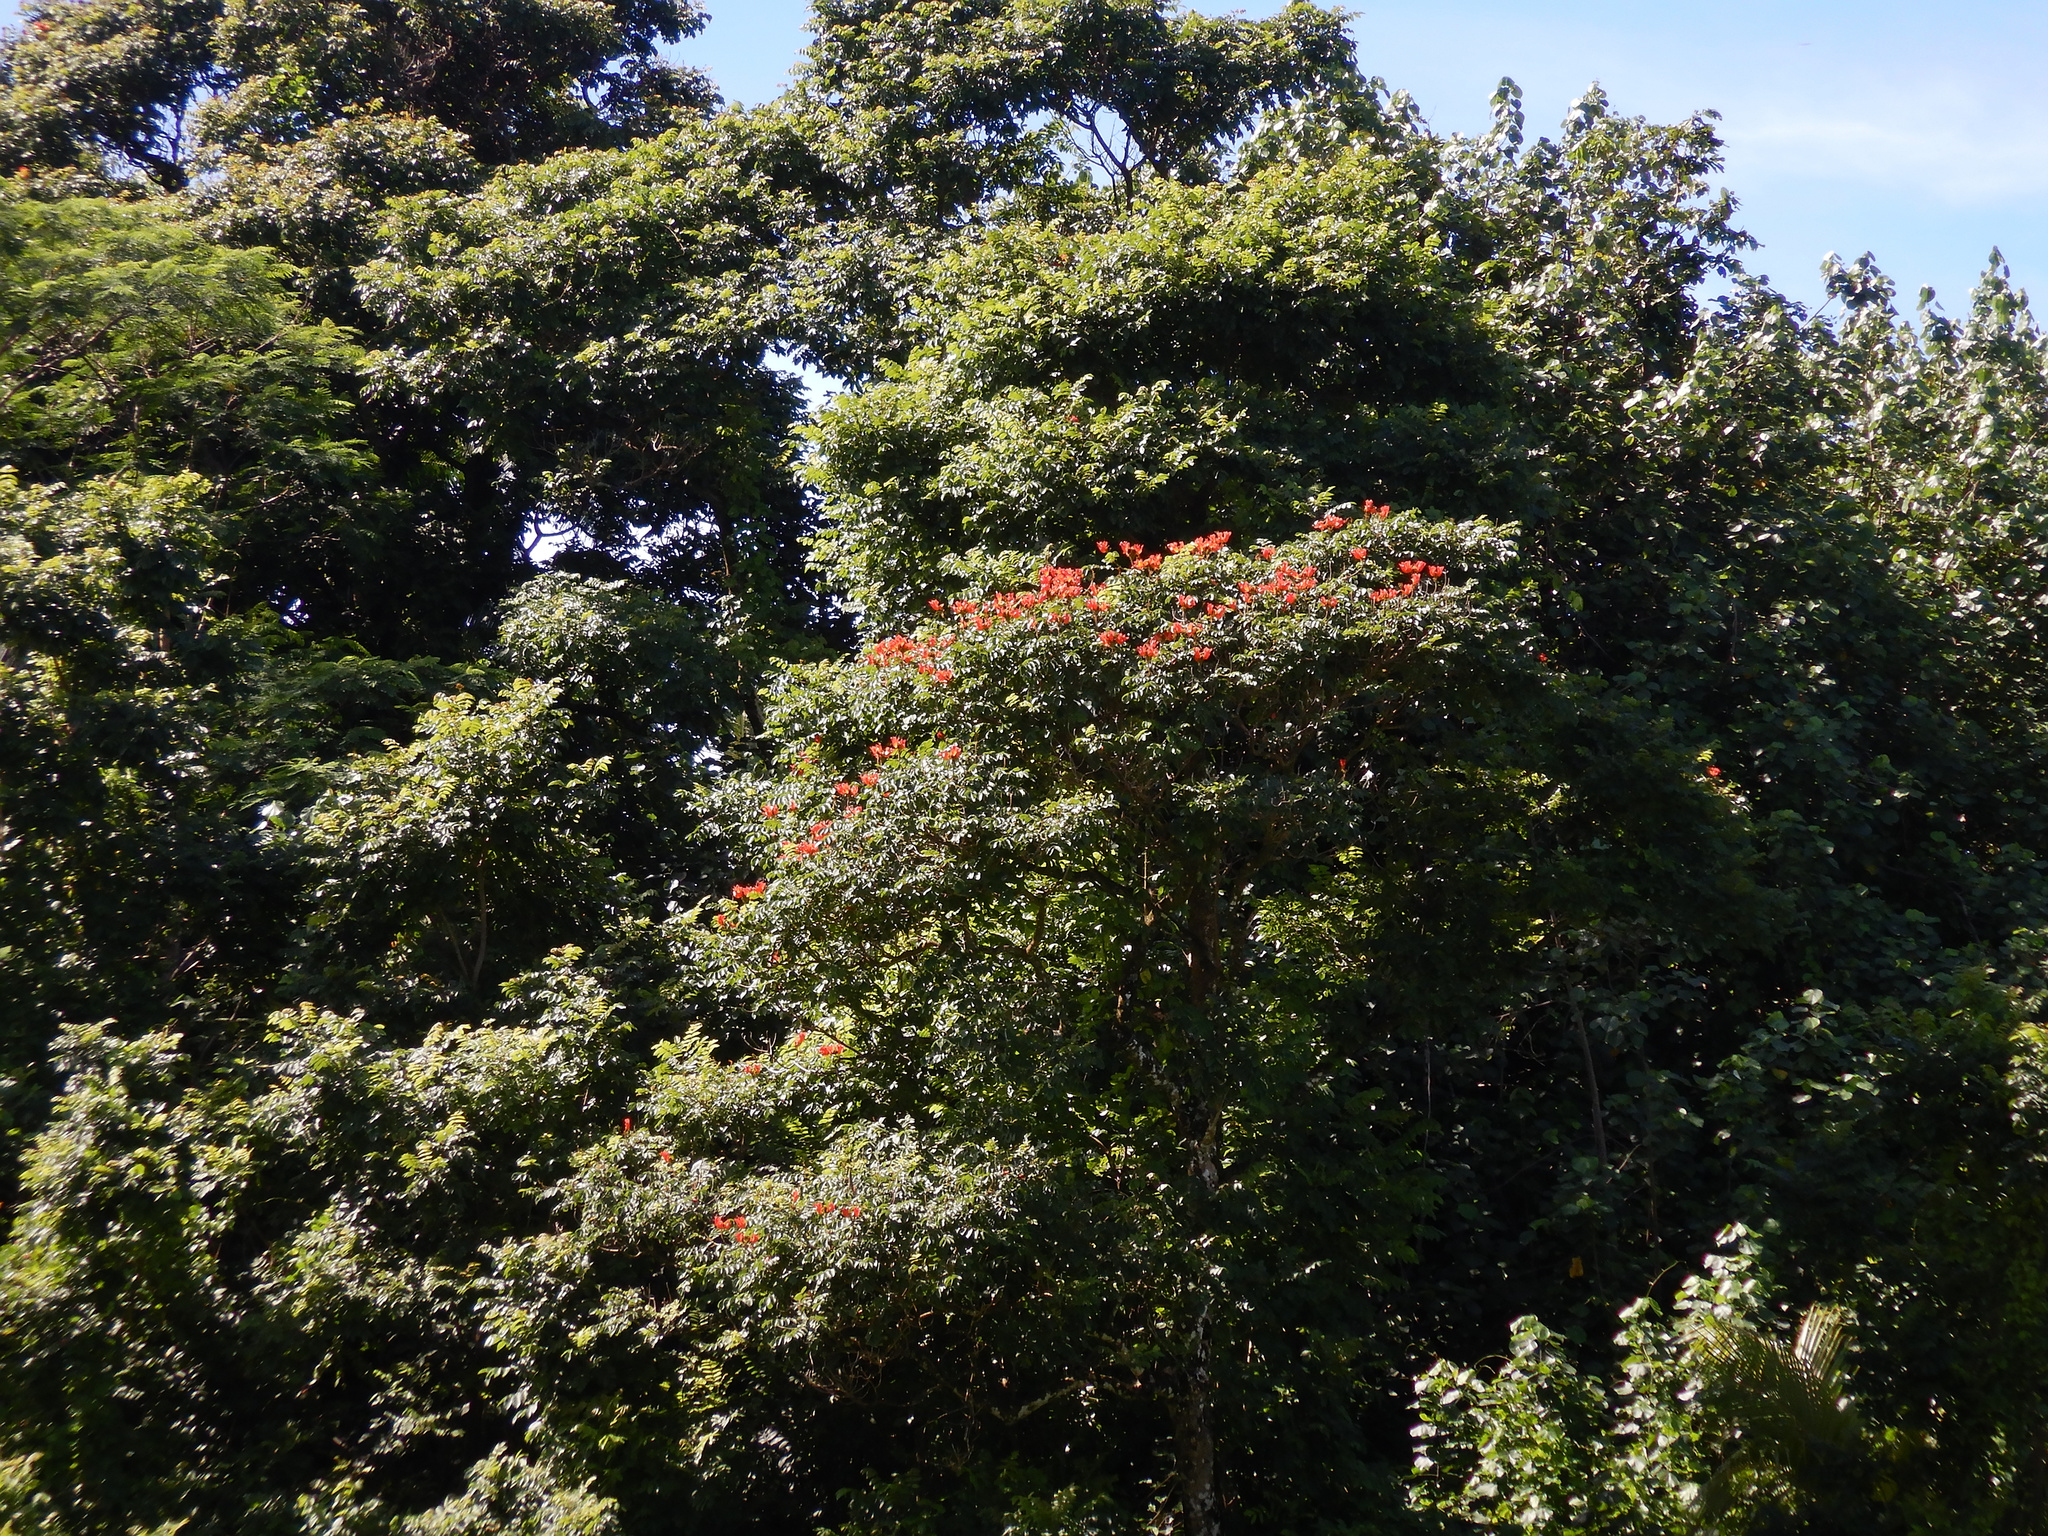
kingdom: Plantae
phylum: Tracheophyta
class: Magnoliopsida
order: Lamiales
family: Bignoniaceae
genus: Spathodea
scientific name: Spathodea campanulata
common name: African tuliptree
